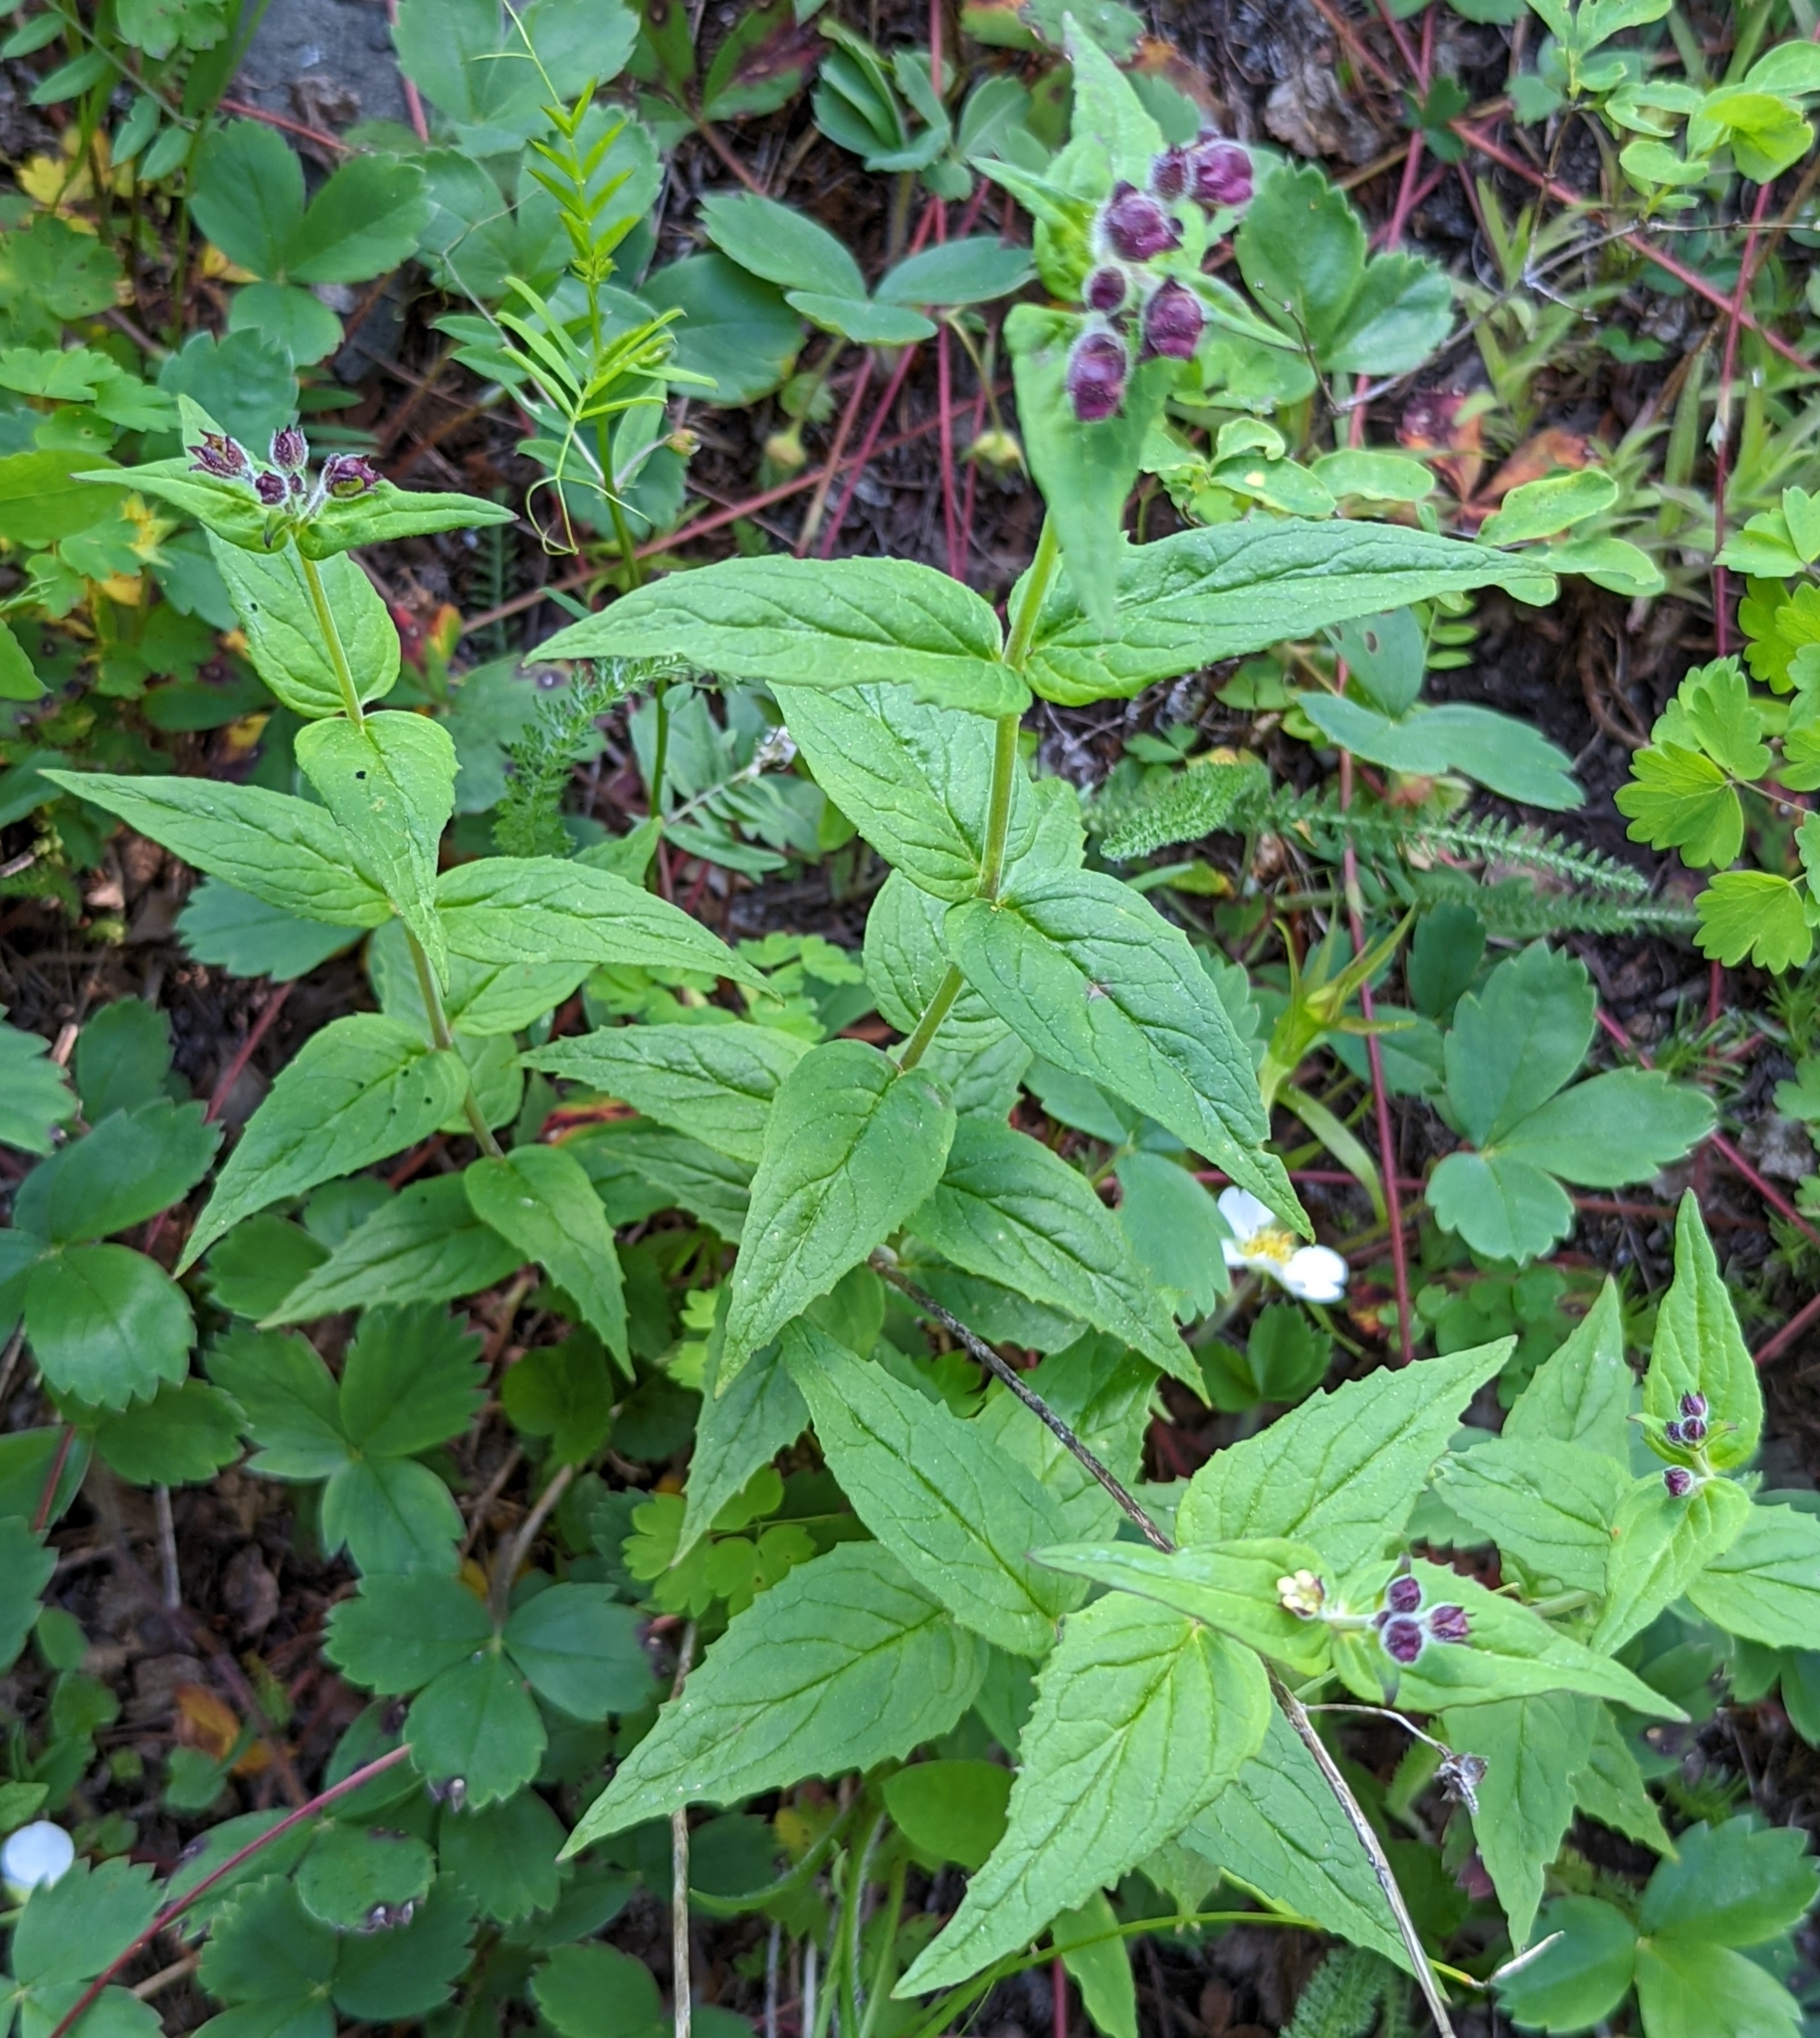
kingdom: Plantae
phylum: Tracheophyta
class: Magnoliopsida
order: Lamiales
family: Plantaginaceae
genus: Nothochelone
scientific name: Nothochelone nemorosa
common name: Woodland beardtongue
